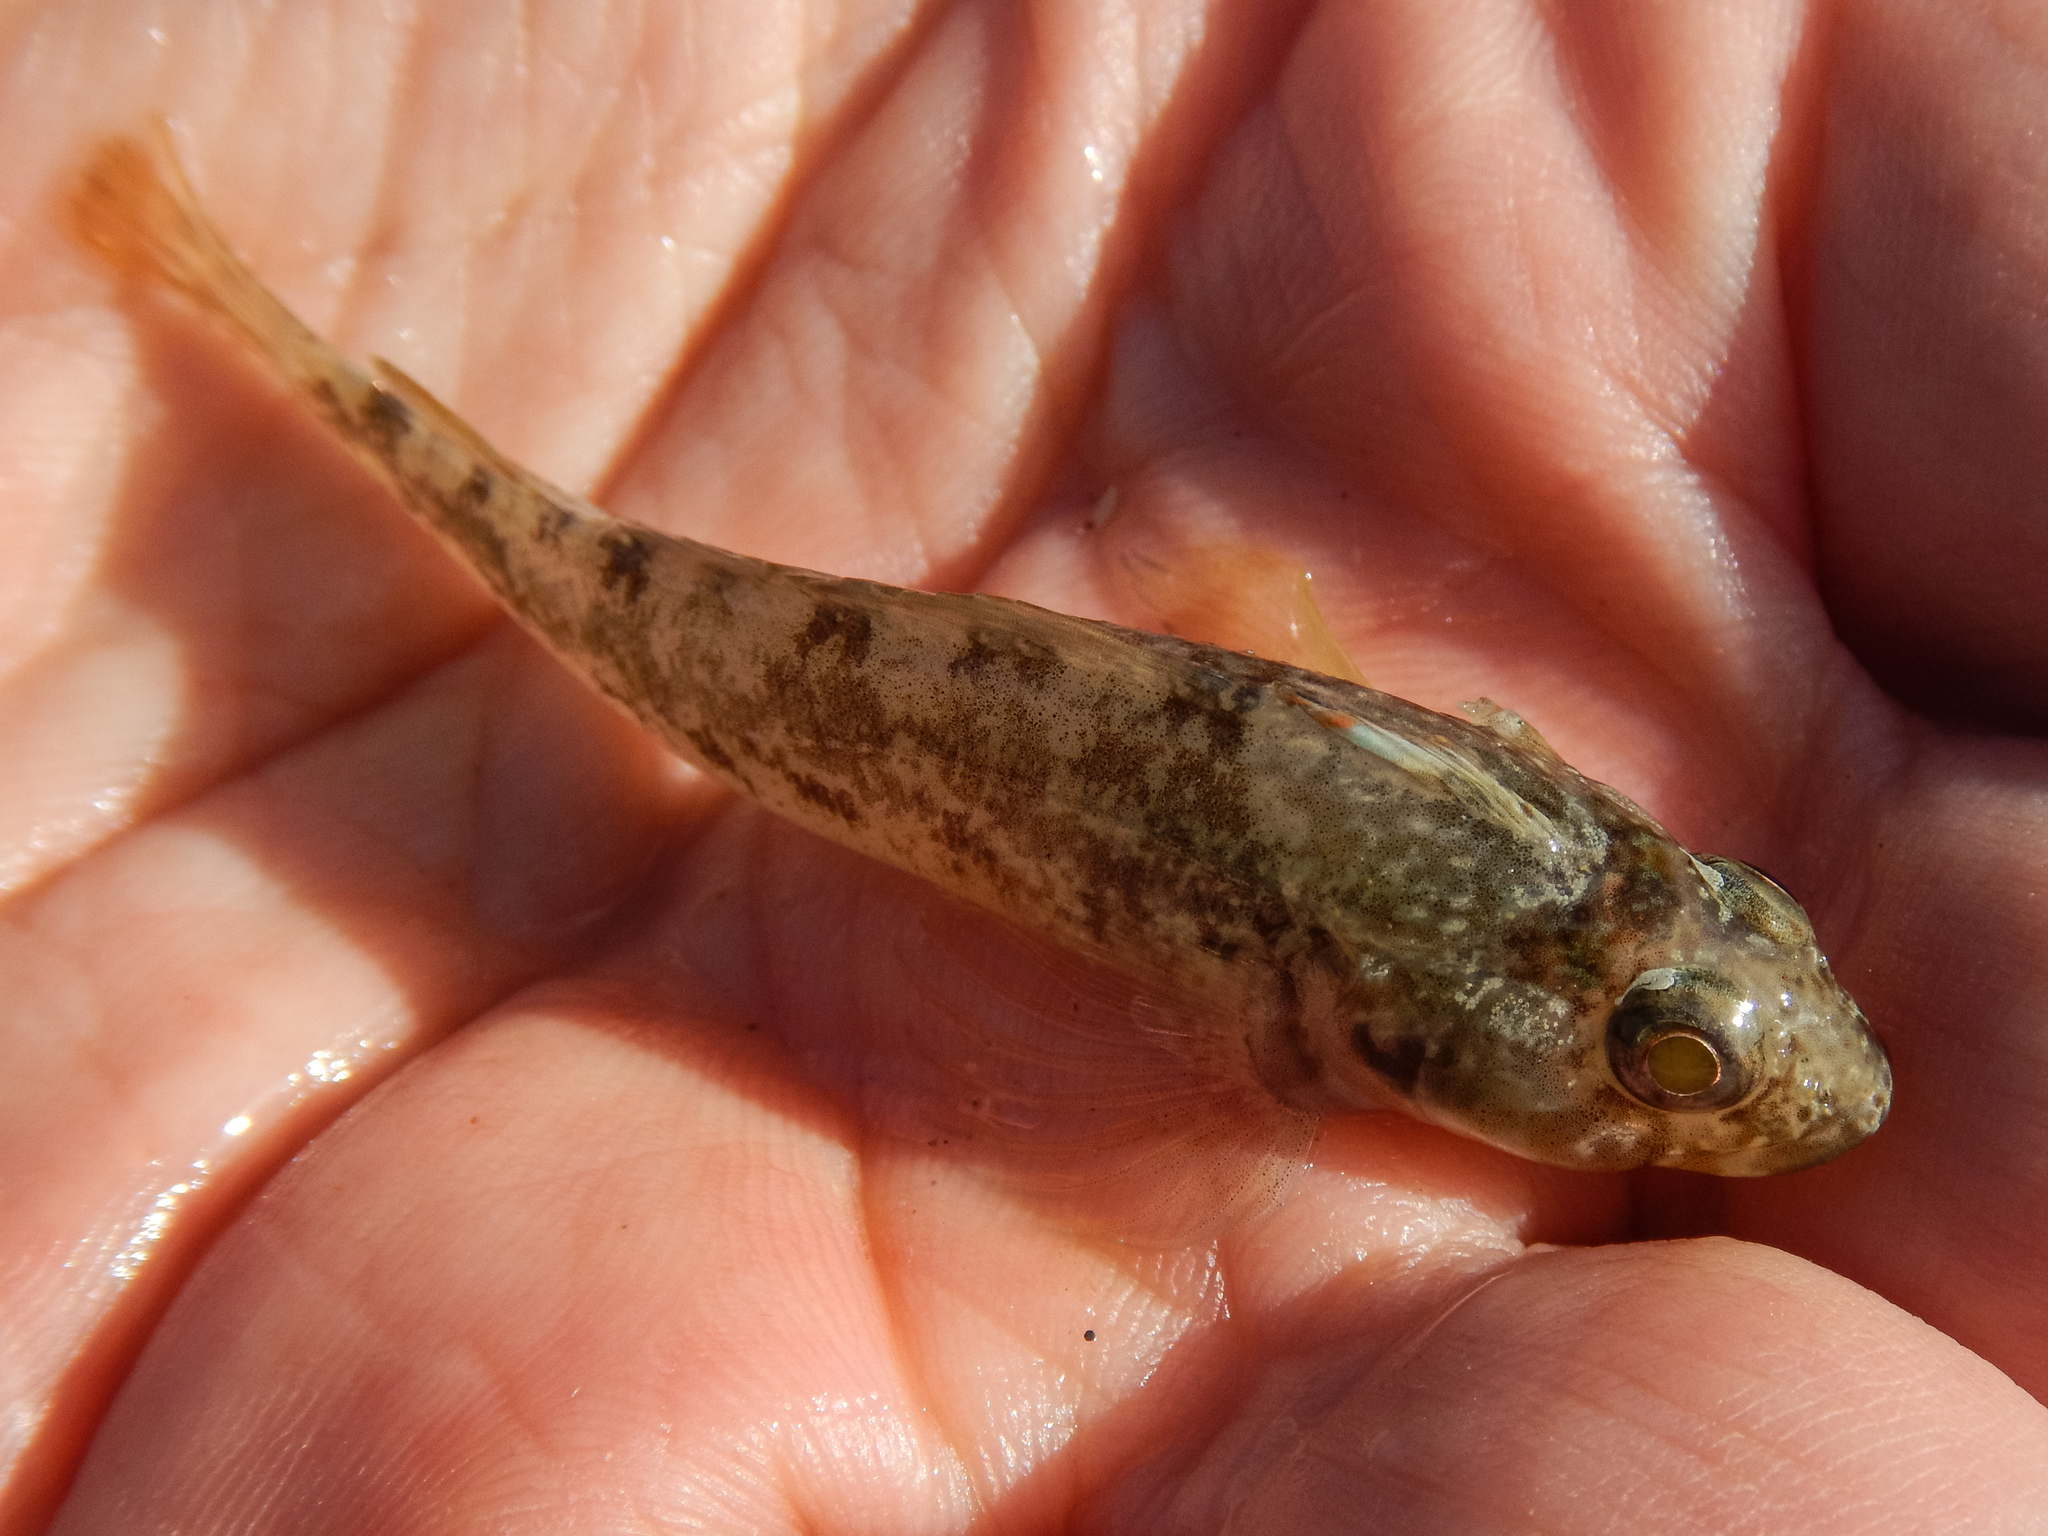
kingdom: Animalia
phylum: Chordata
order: Perciformes
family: Tripterygiidae
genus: Forsterygion
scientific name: Forsterygion capito
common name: Spotted robust triplefin
